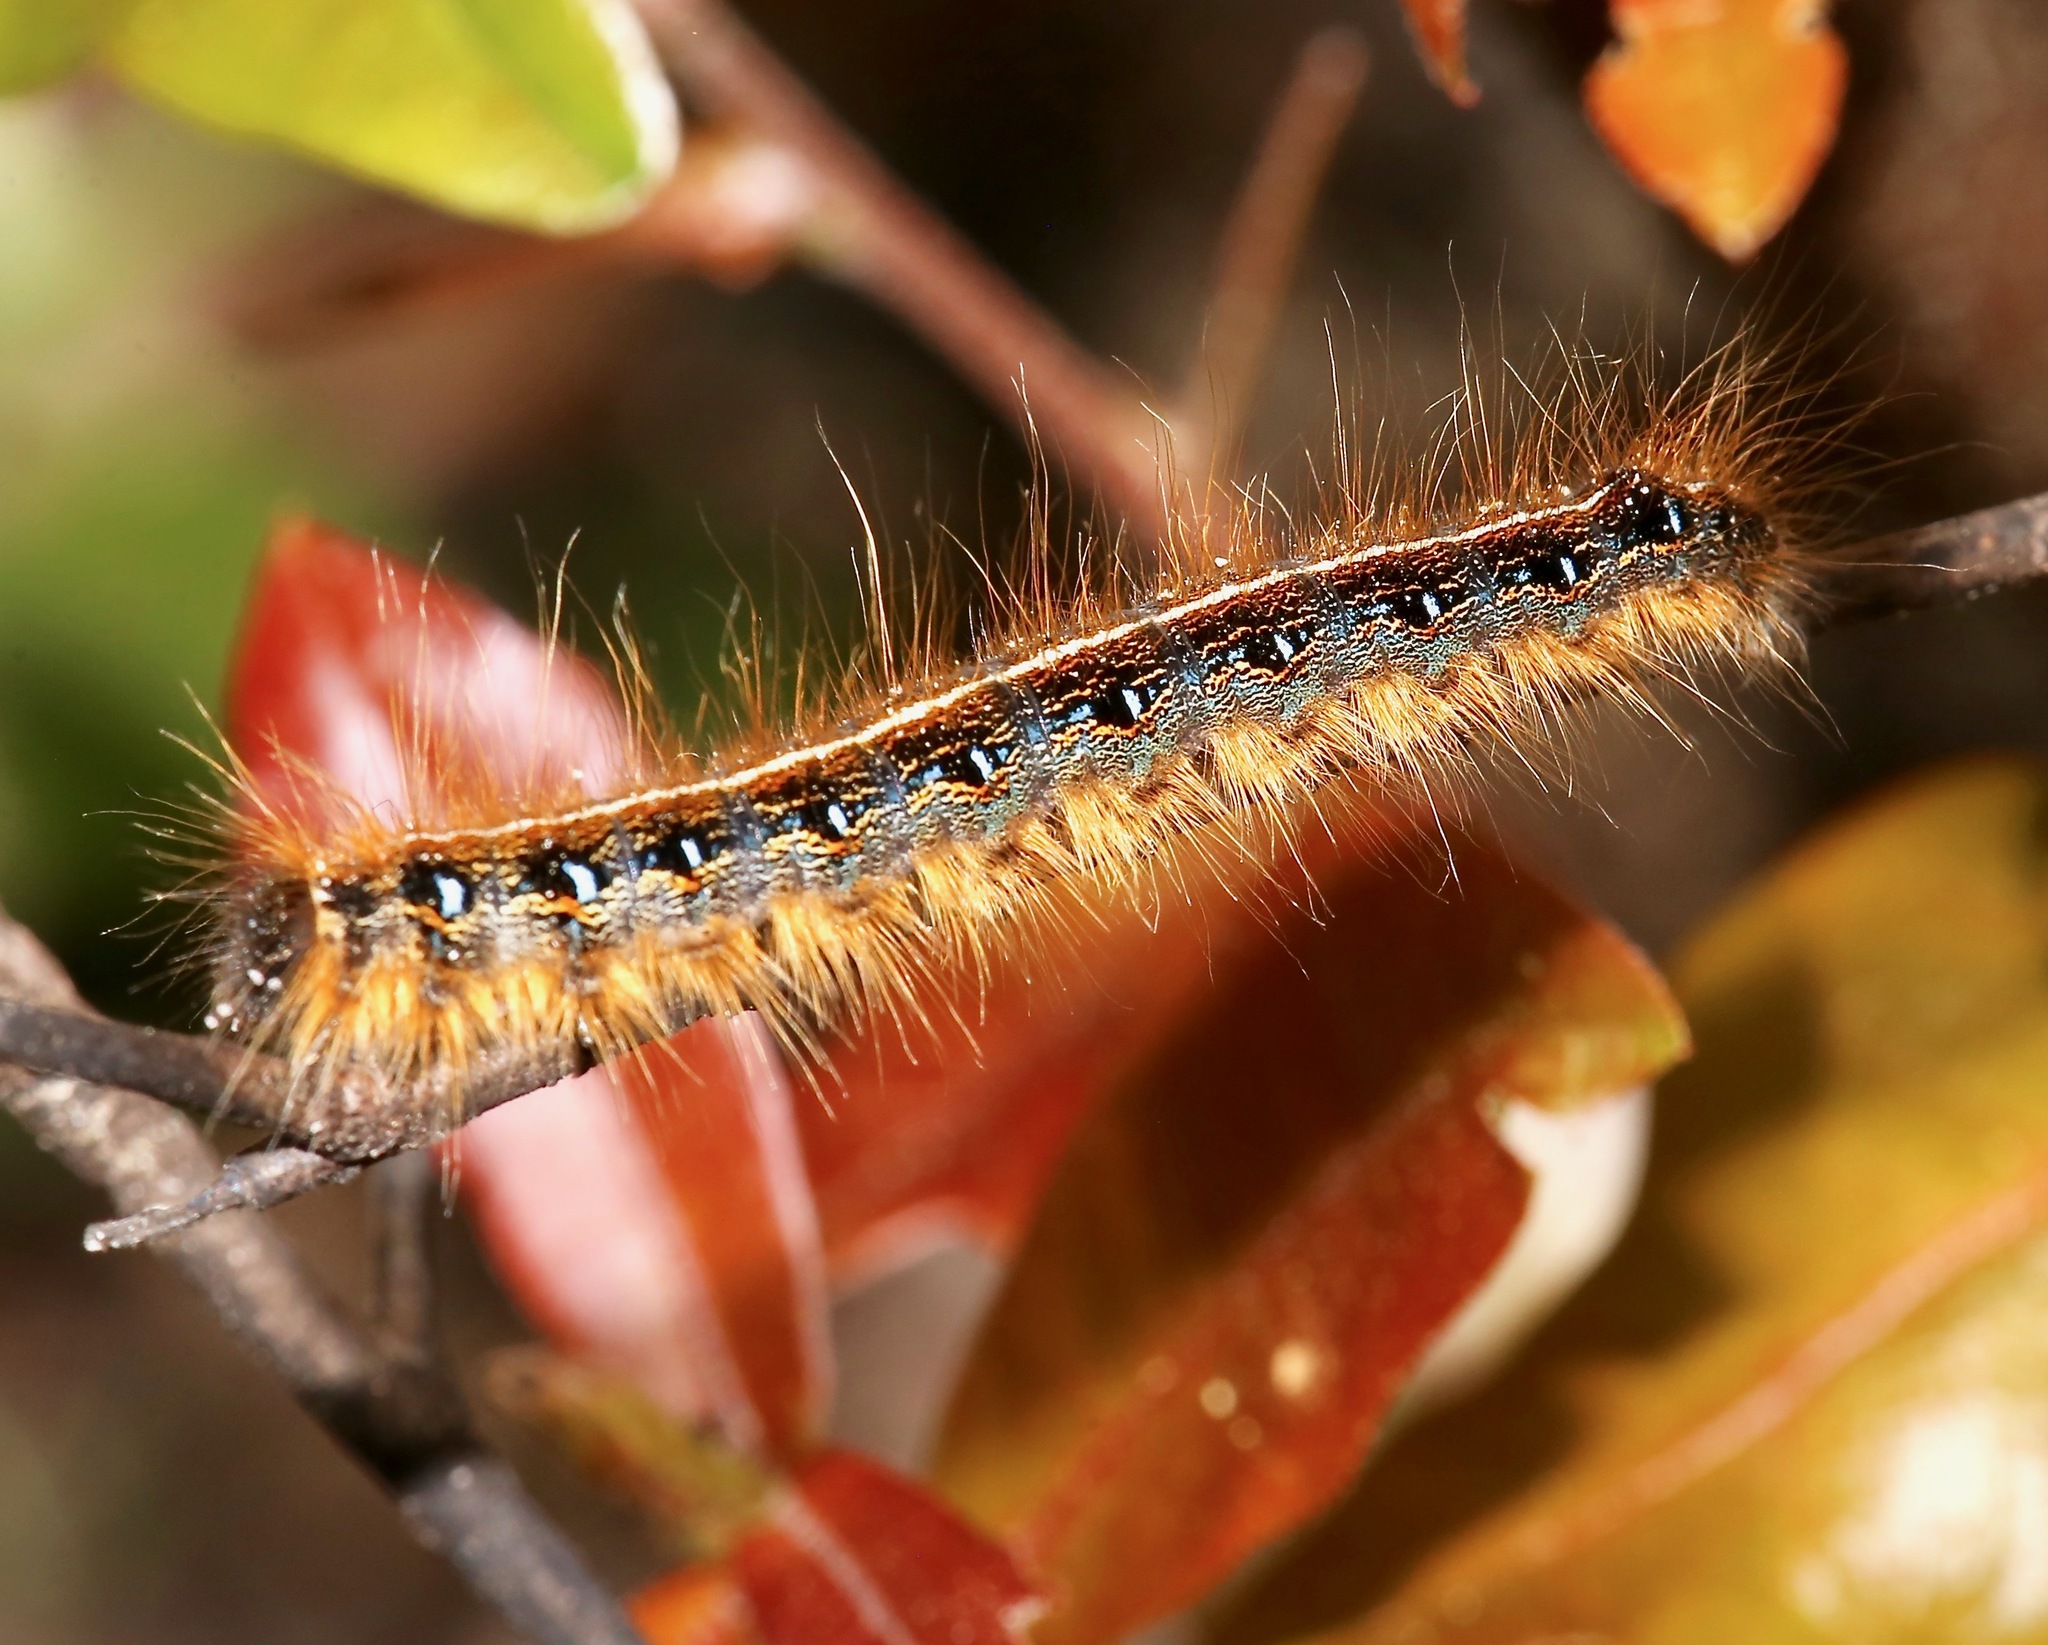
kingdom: Animalia
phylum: Arthropoda
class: Insecta
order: Lepidoptera
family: Lasiocampidae
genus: Malacosoma
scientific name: Malacosoma americana
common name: Eastern tent caterpillar moth
